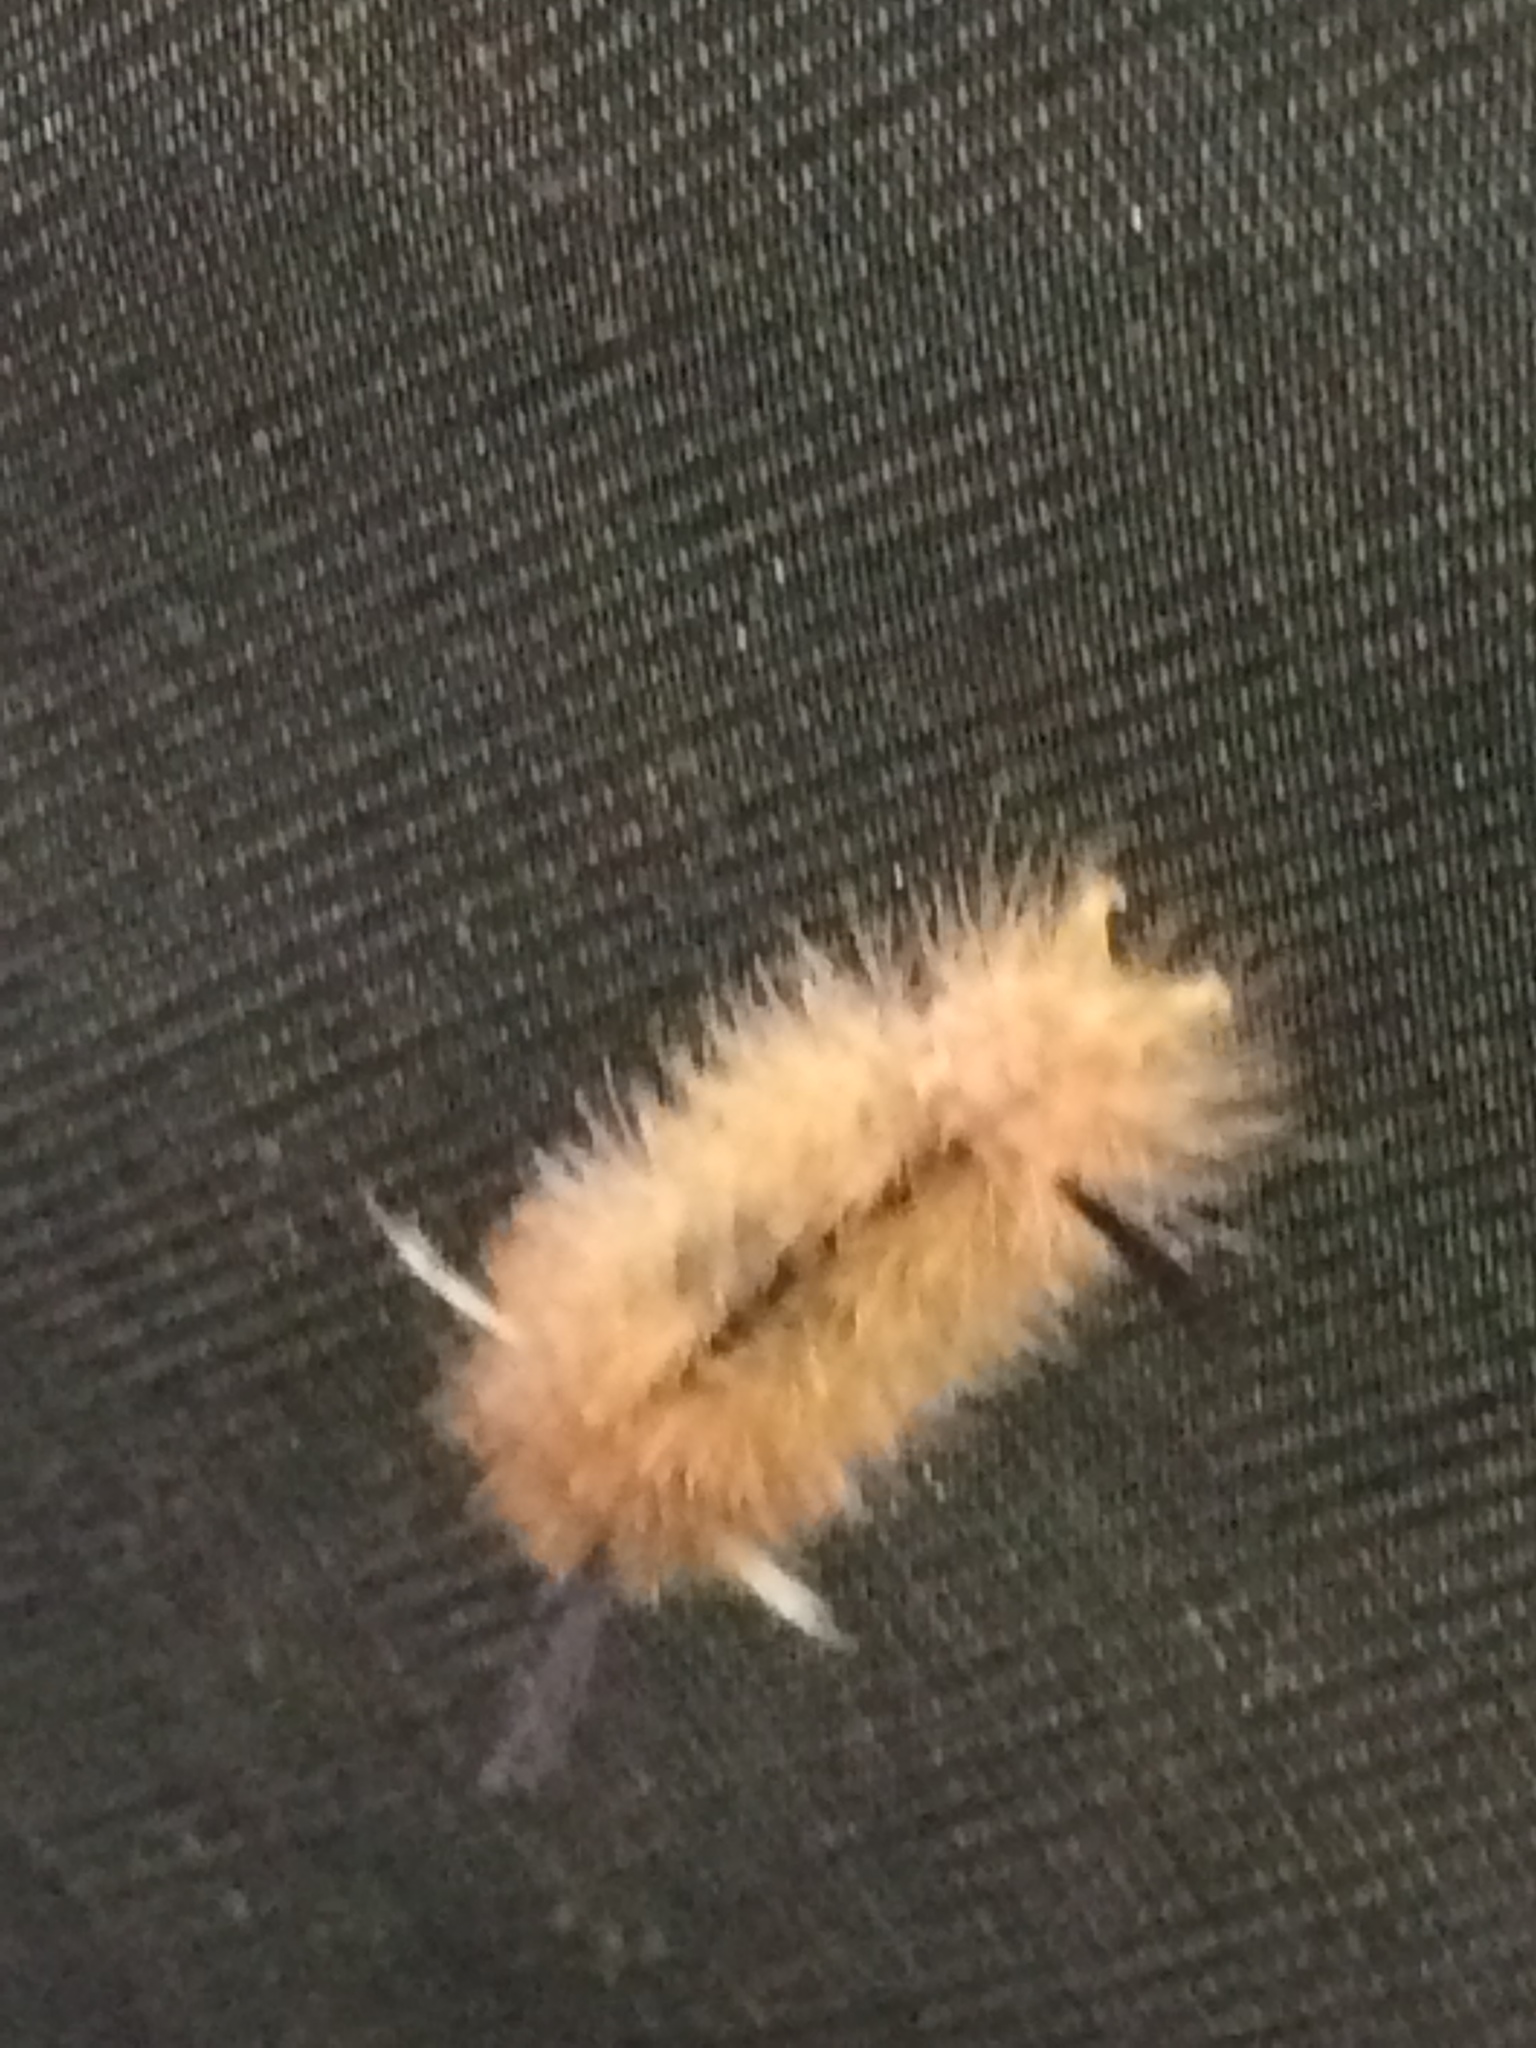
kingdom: Animalia
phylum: Arthropoda
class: Insecta
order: Lepidoptera
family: Erebidae
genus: Halysidota
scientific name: Halysidota tessellaris
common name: Banded tussock moth
